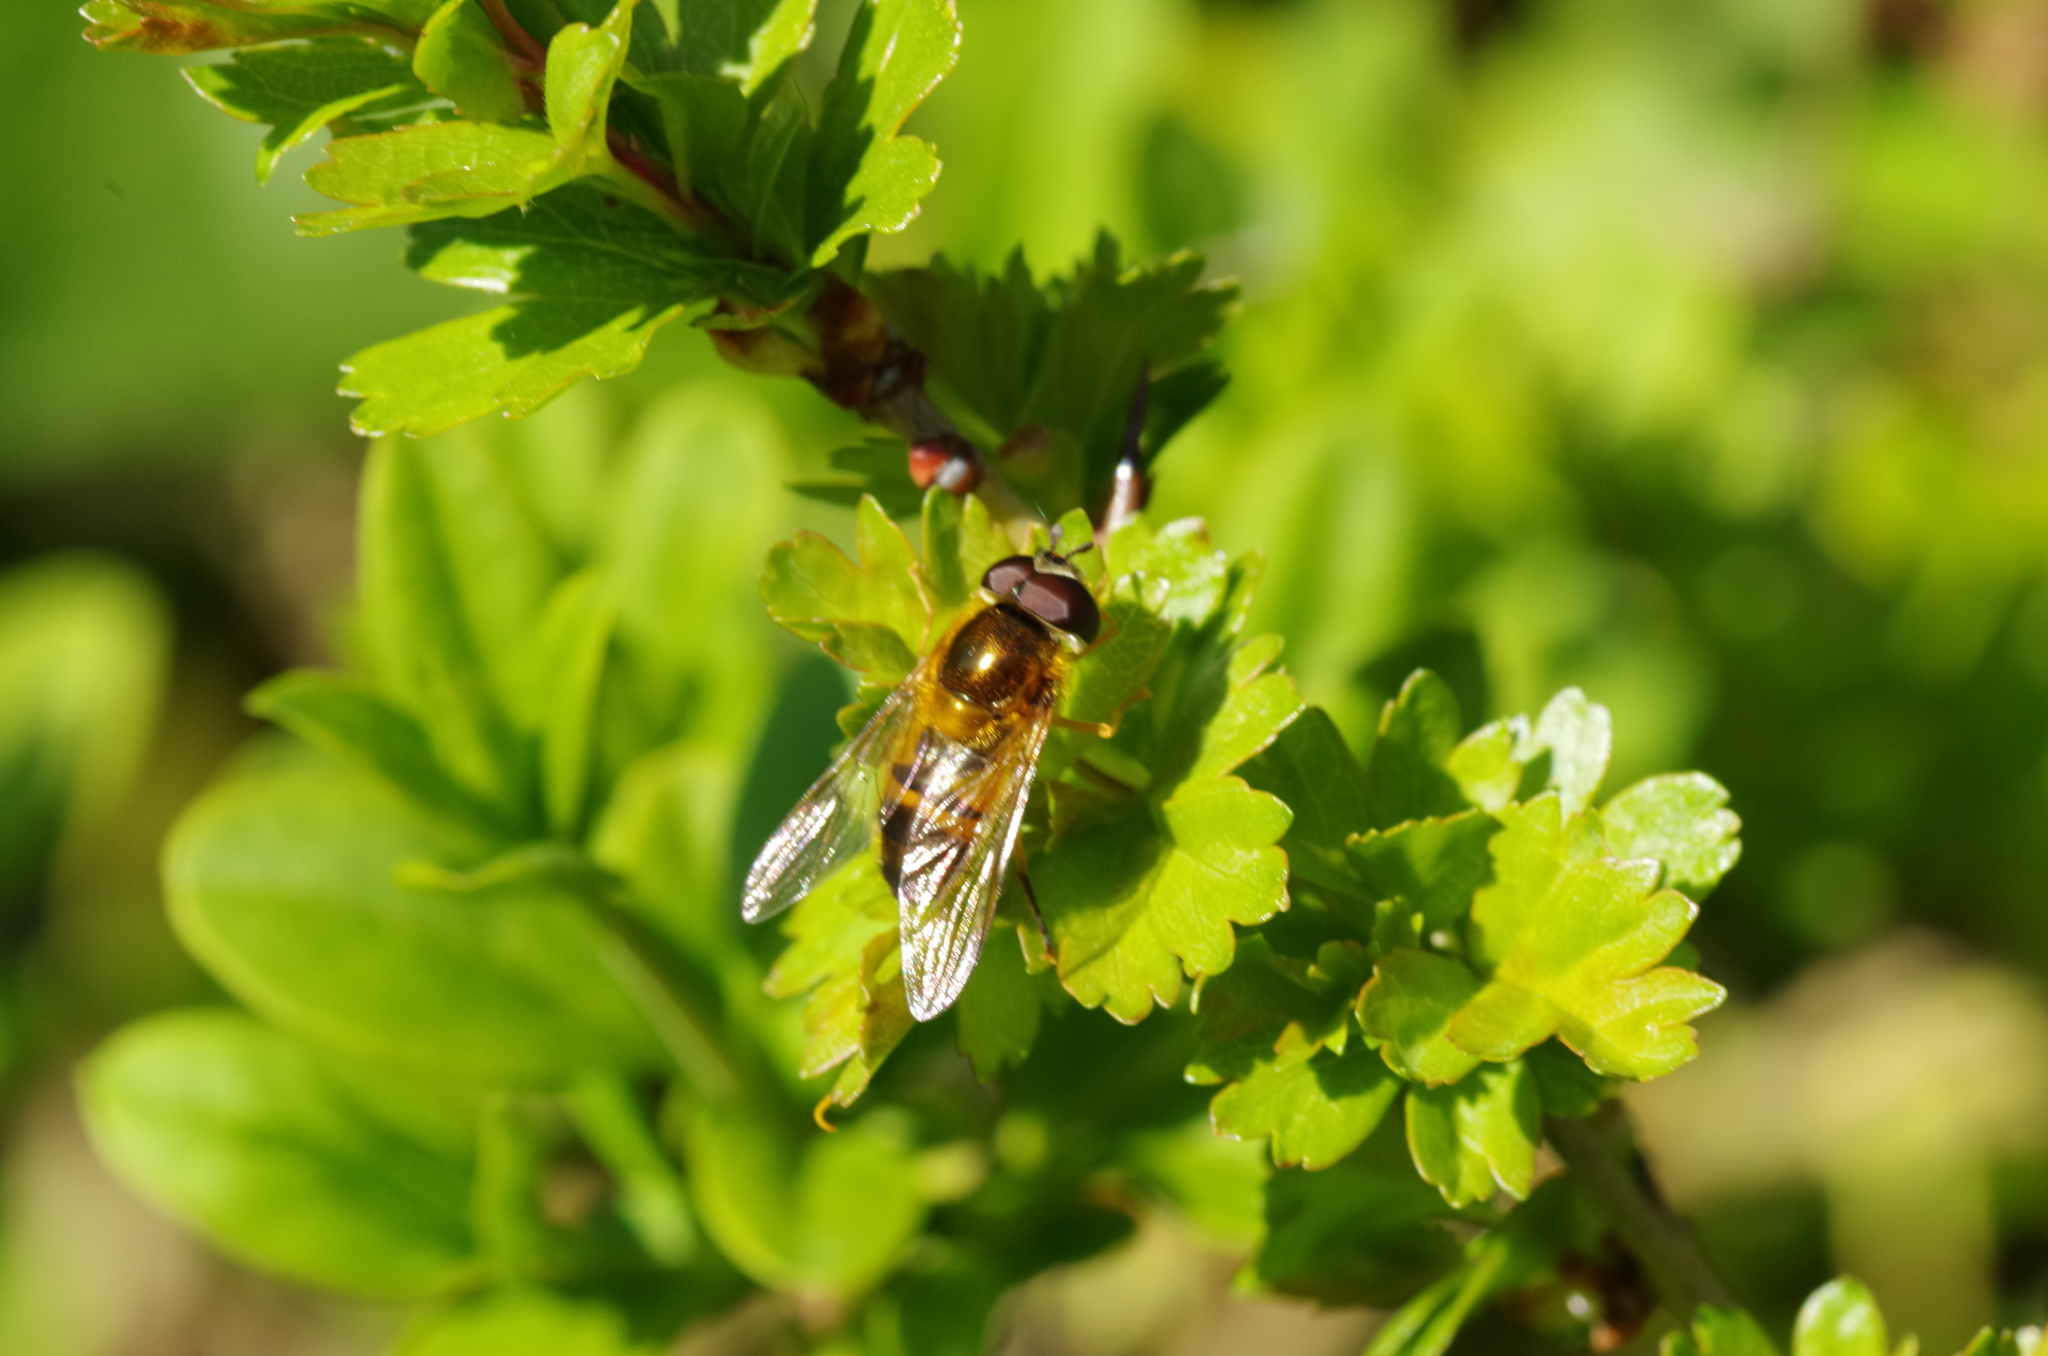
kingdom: Animalia
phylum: Arthropoda
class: Insecta
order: Diptera
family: Syrphidae
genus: Epistrophe
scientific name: Epistrophe eligans
